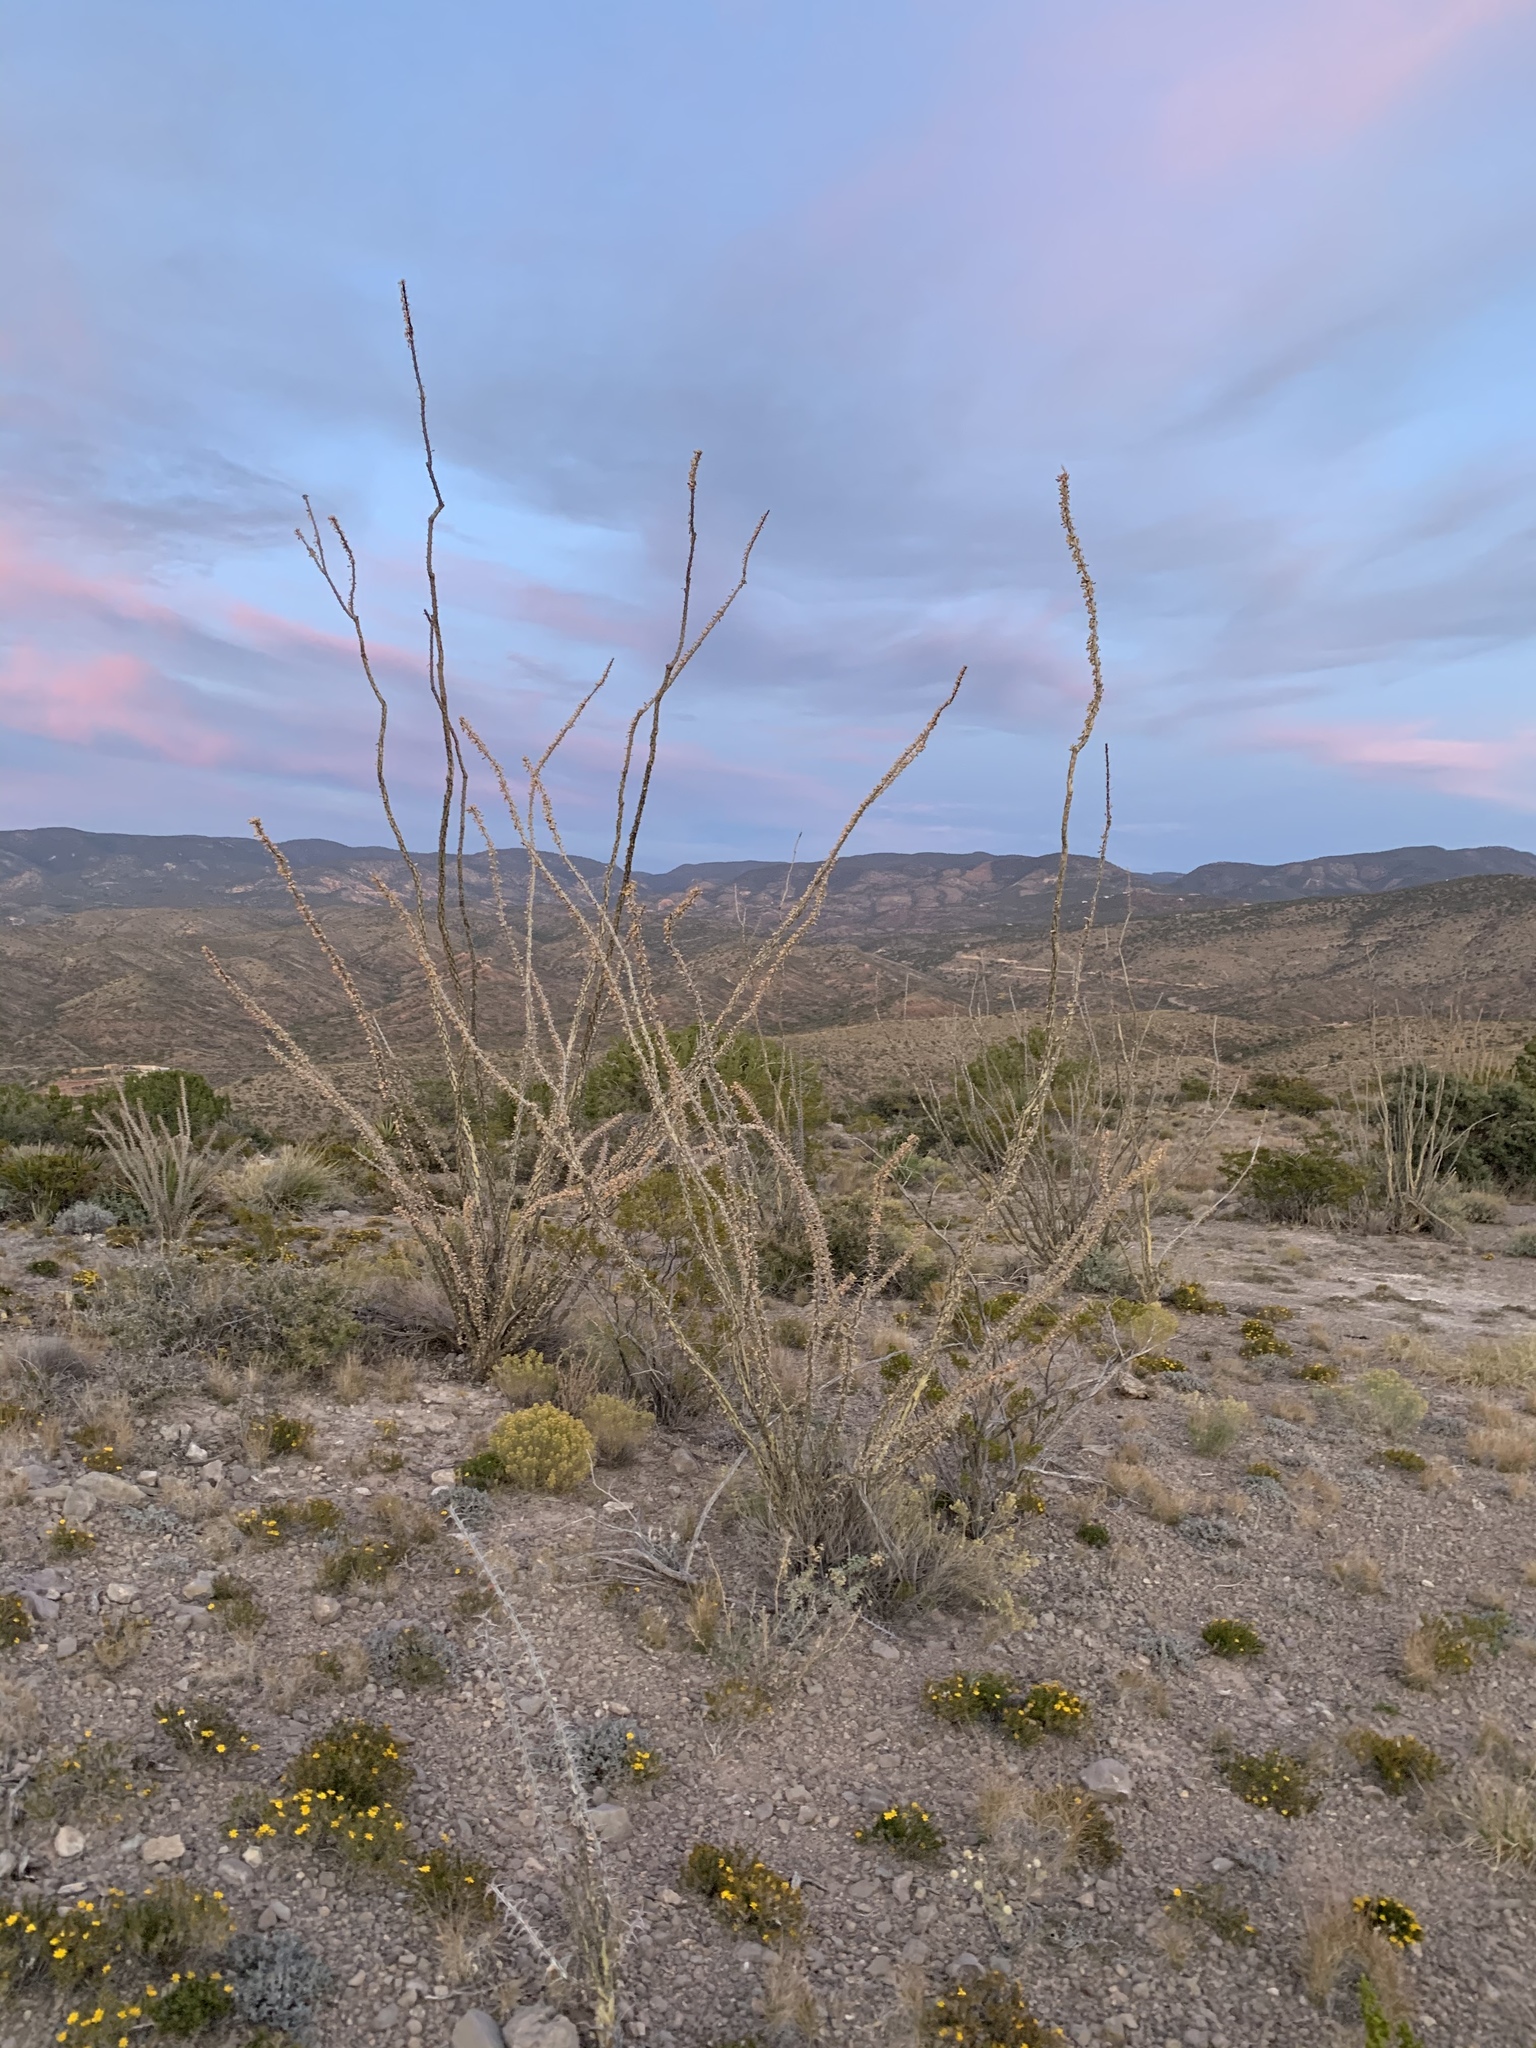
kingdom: Plantae
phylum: Tracheophyta
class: Magnoliopsida
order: Ericales
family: Fouquieriaceae
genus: Fouquieria
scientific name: Fouquieria splendens
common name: Vine-cactus
